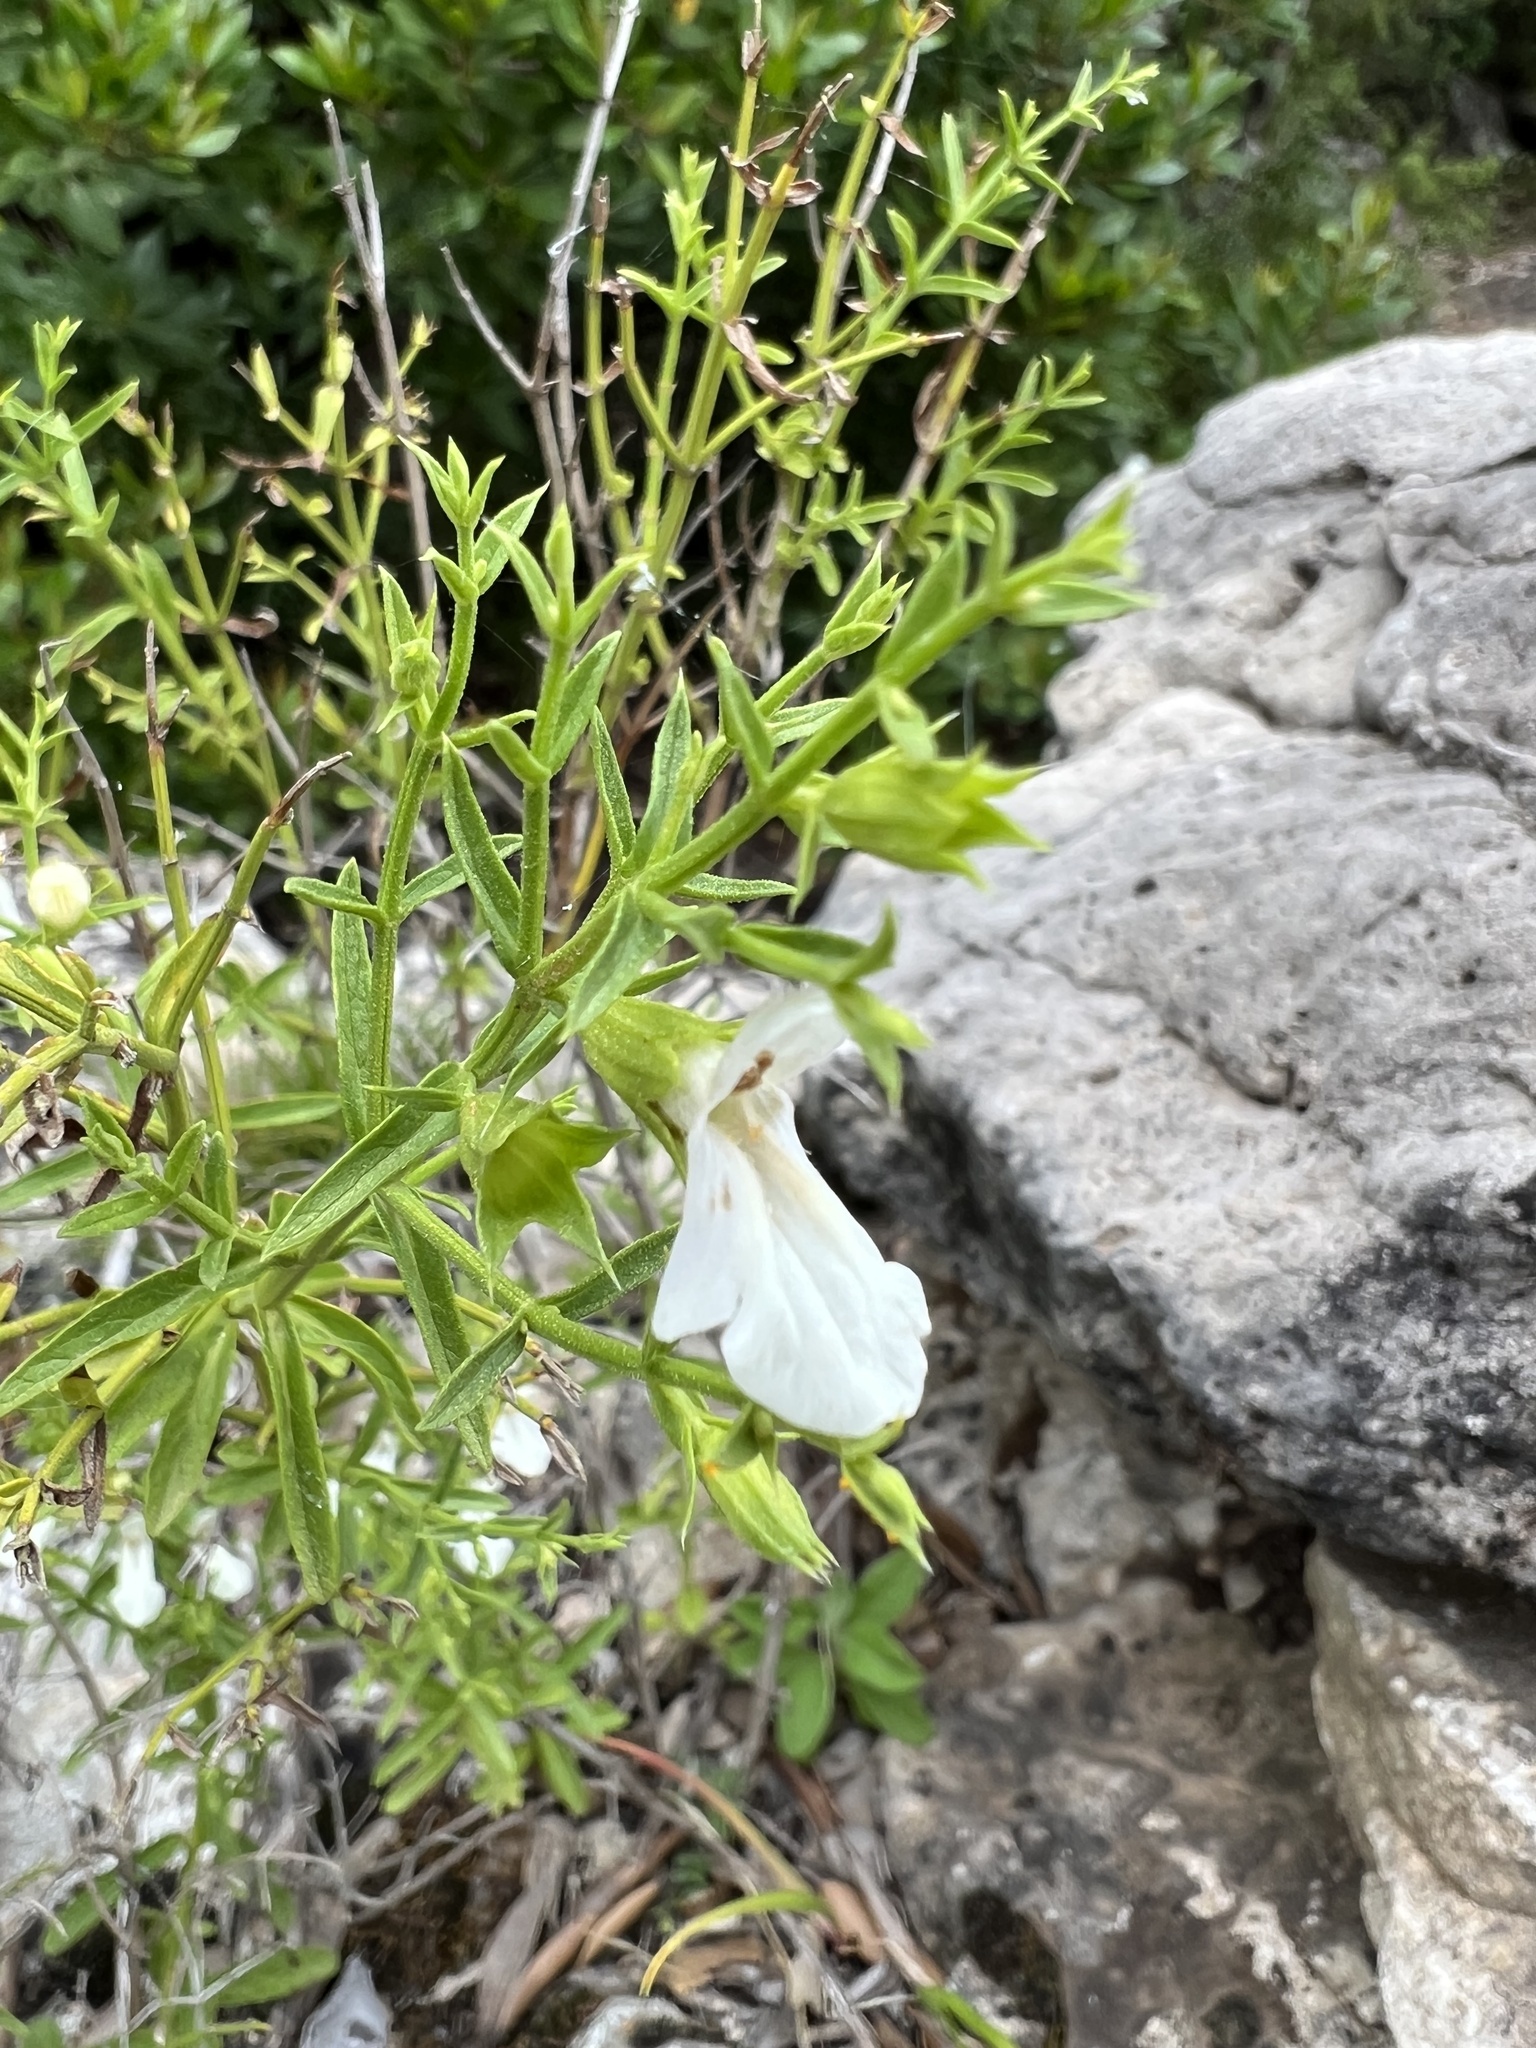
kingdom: Plantae
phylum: Tracheophyta
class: Magnoliopsida
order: Lamiales
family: Lamiaceae
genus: Stachys
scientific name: Stachys glutinosa
